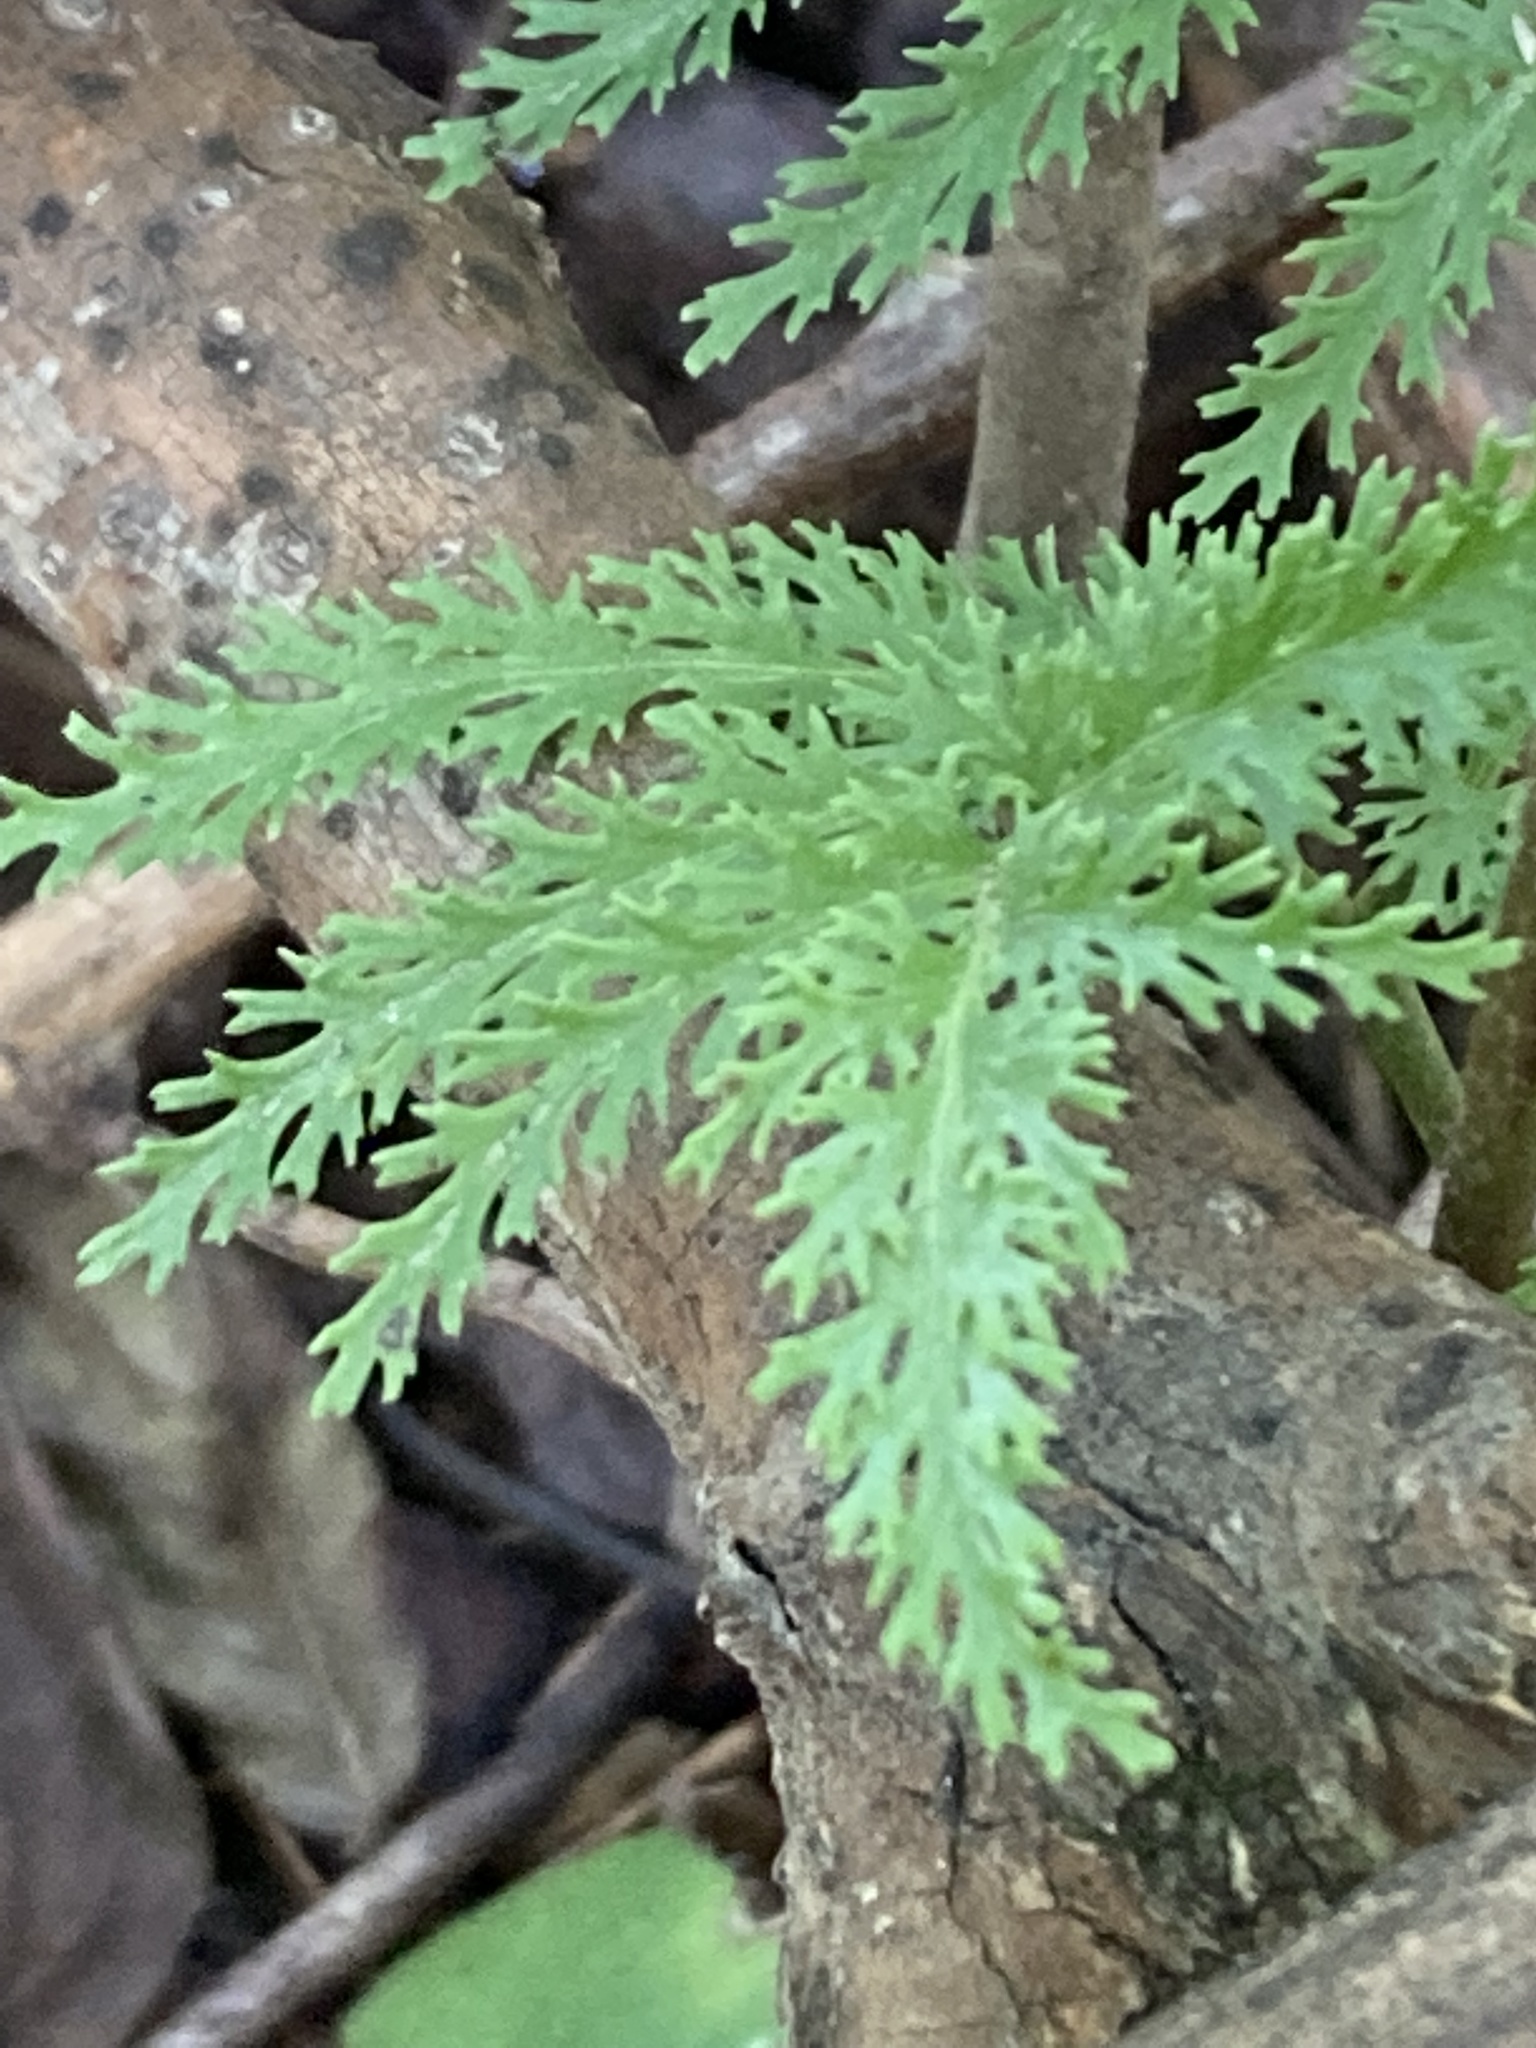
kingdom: Plantae
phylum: Tracheophyta
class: Polypodiopsida
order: Ophioglossales
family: Ophioglossaceae
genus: Sceptridium
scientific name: Sceptridium dissectum
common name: Cut-leaved grapefern
